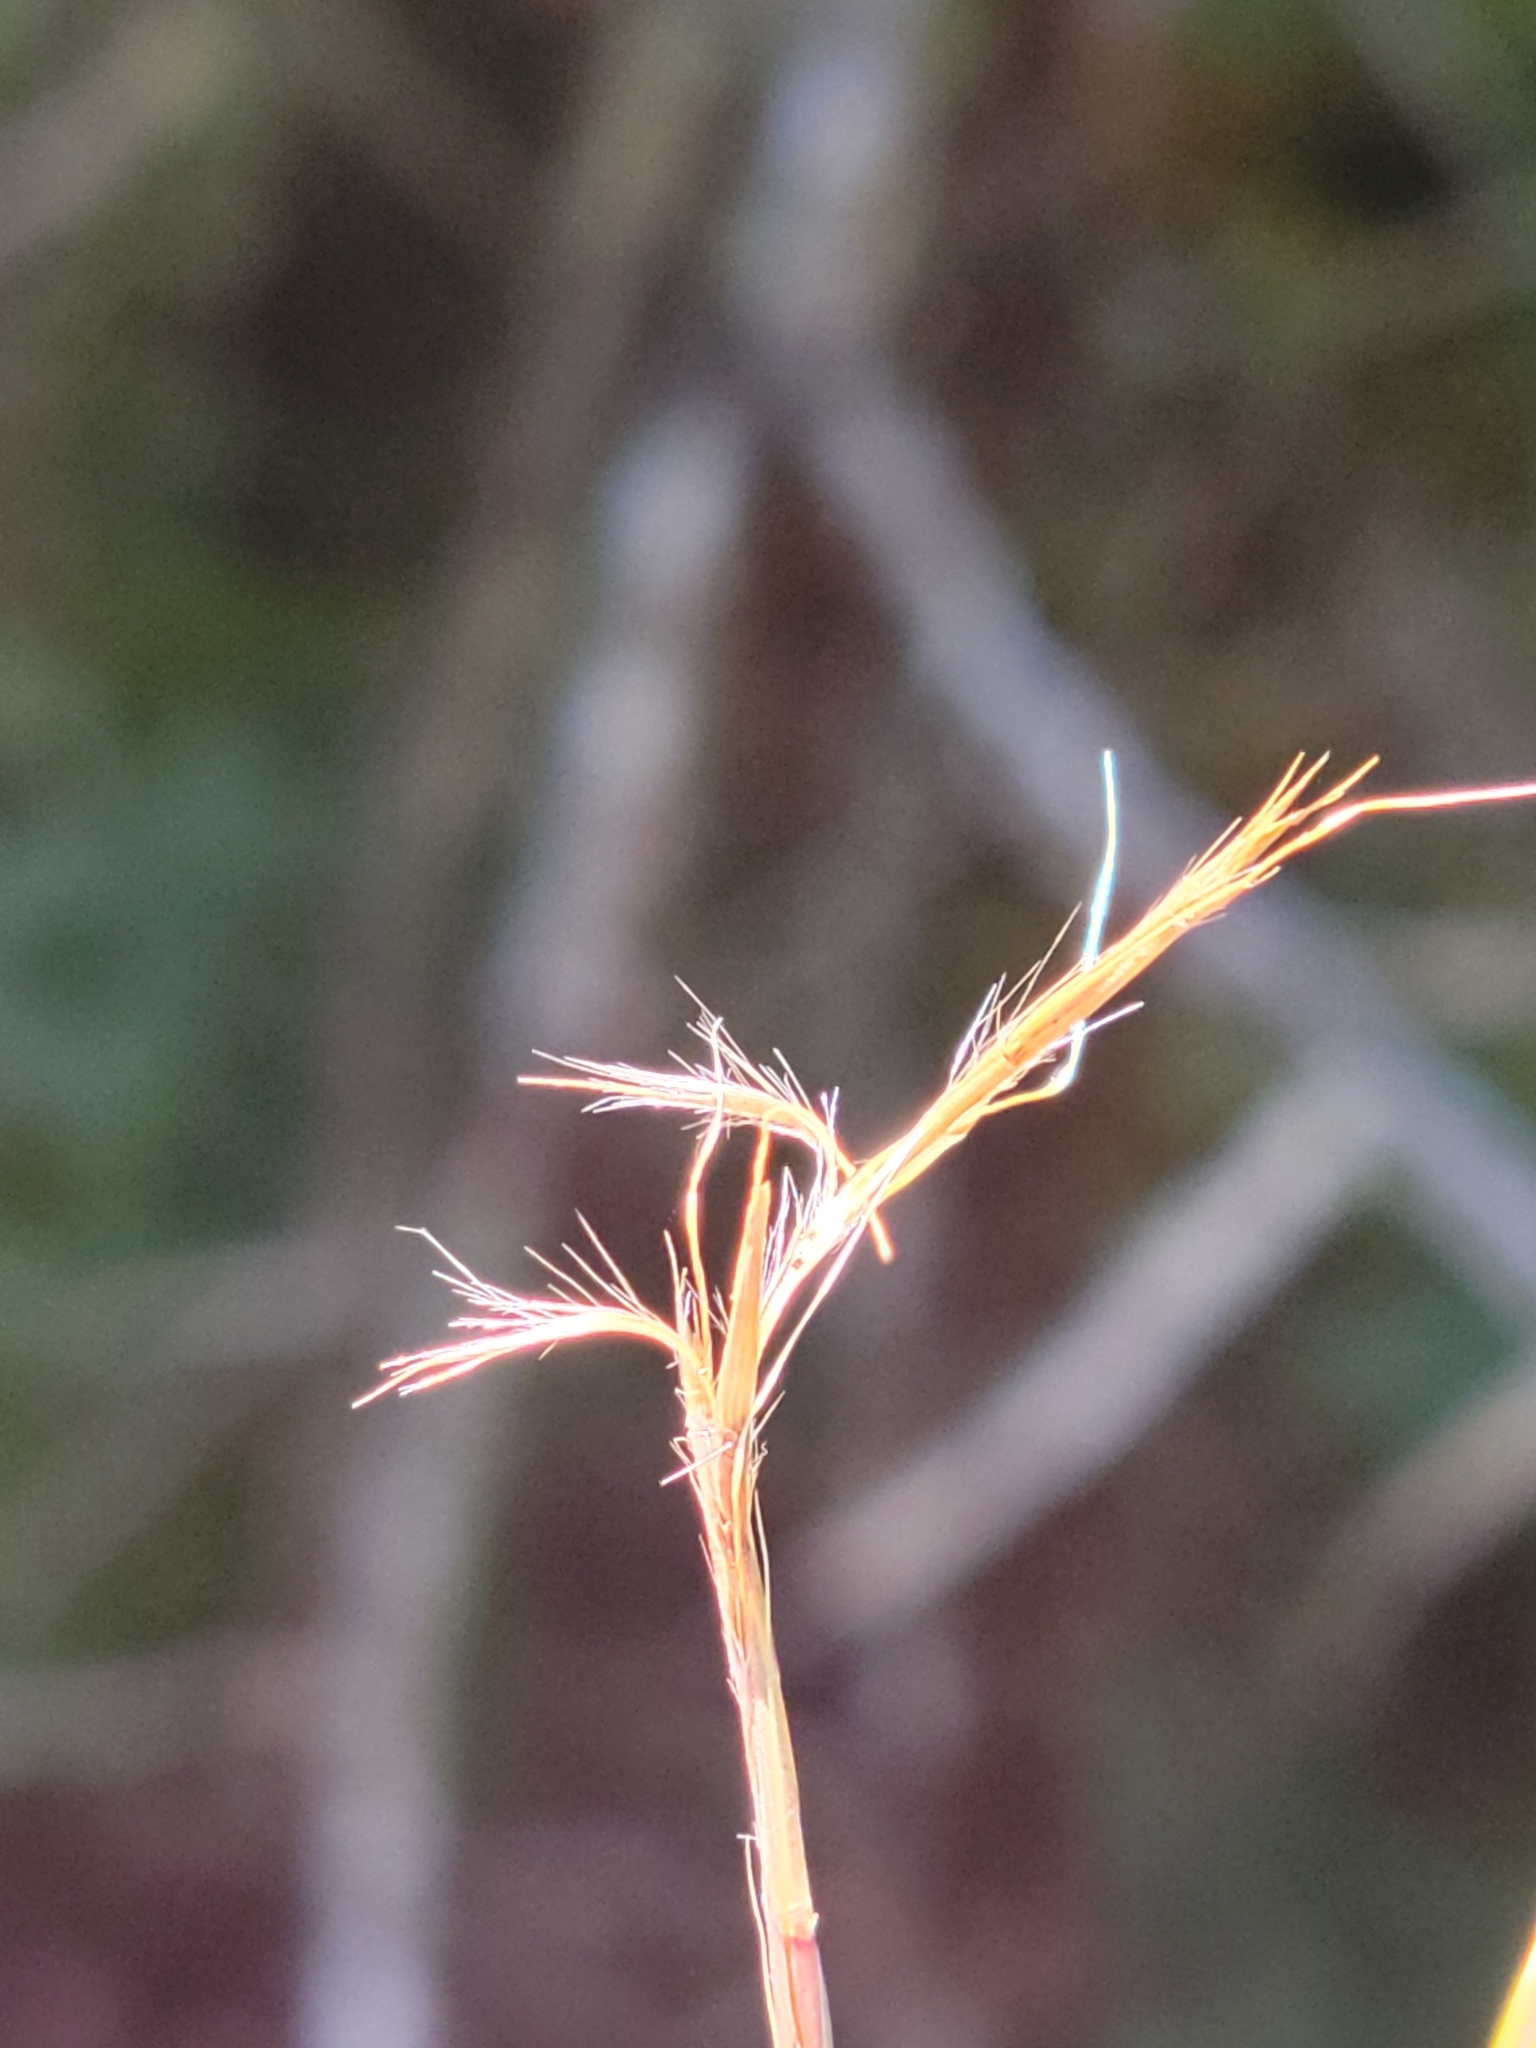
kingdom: Plantae
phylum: Tracheophyta
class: Liliopsida
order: Poales
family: Poaceae
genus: Schizachyrium
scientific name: Schizachyrium scoparium
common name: Little bluestem
